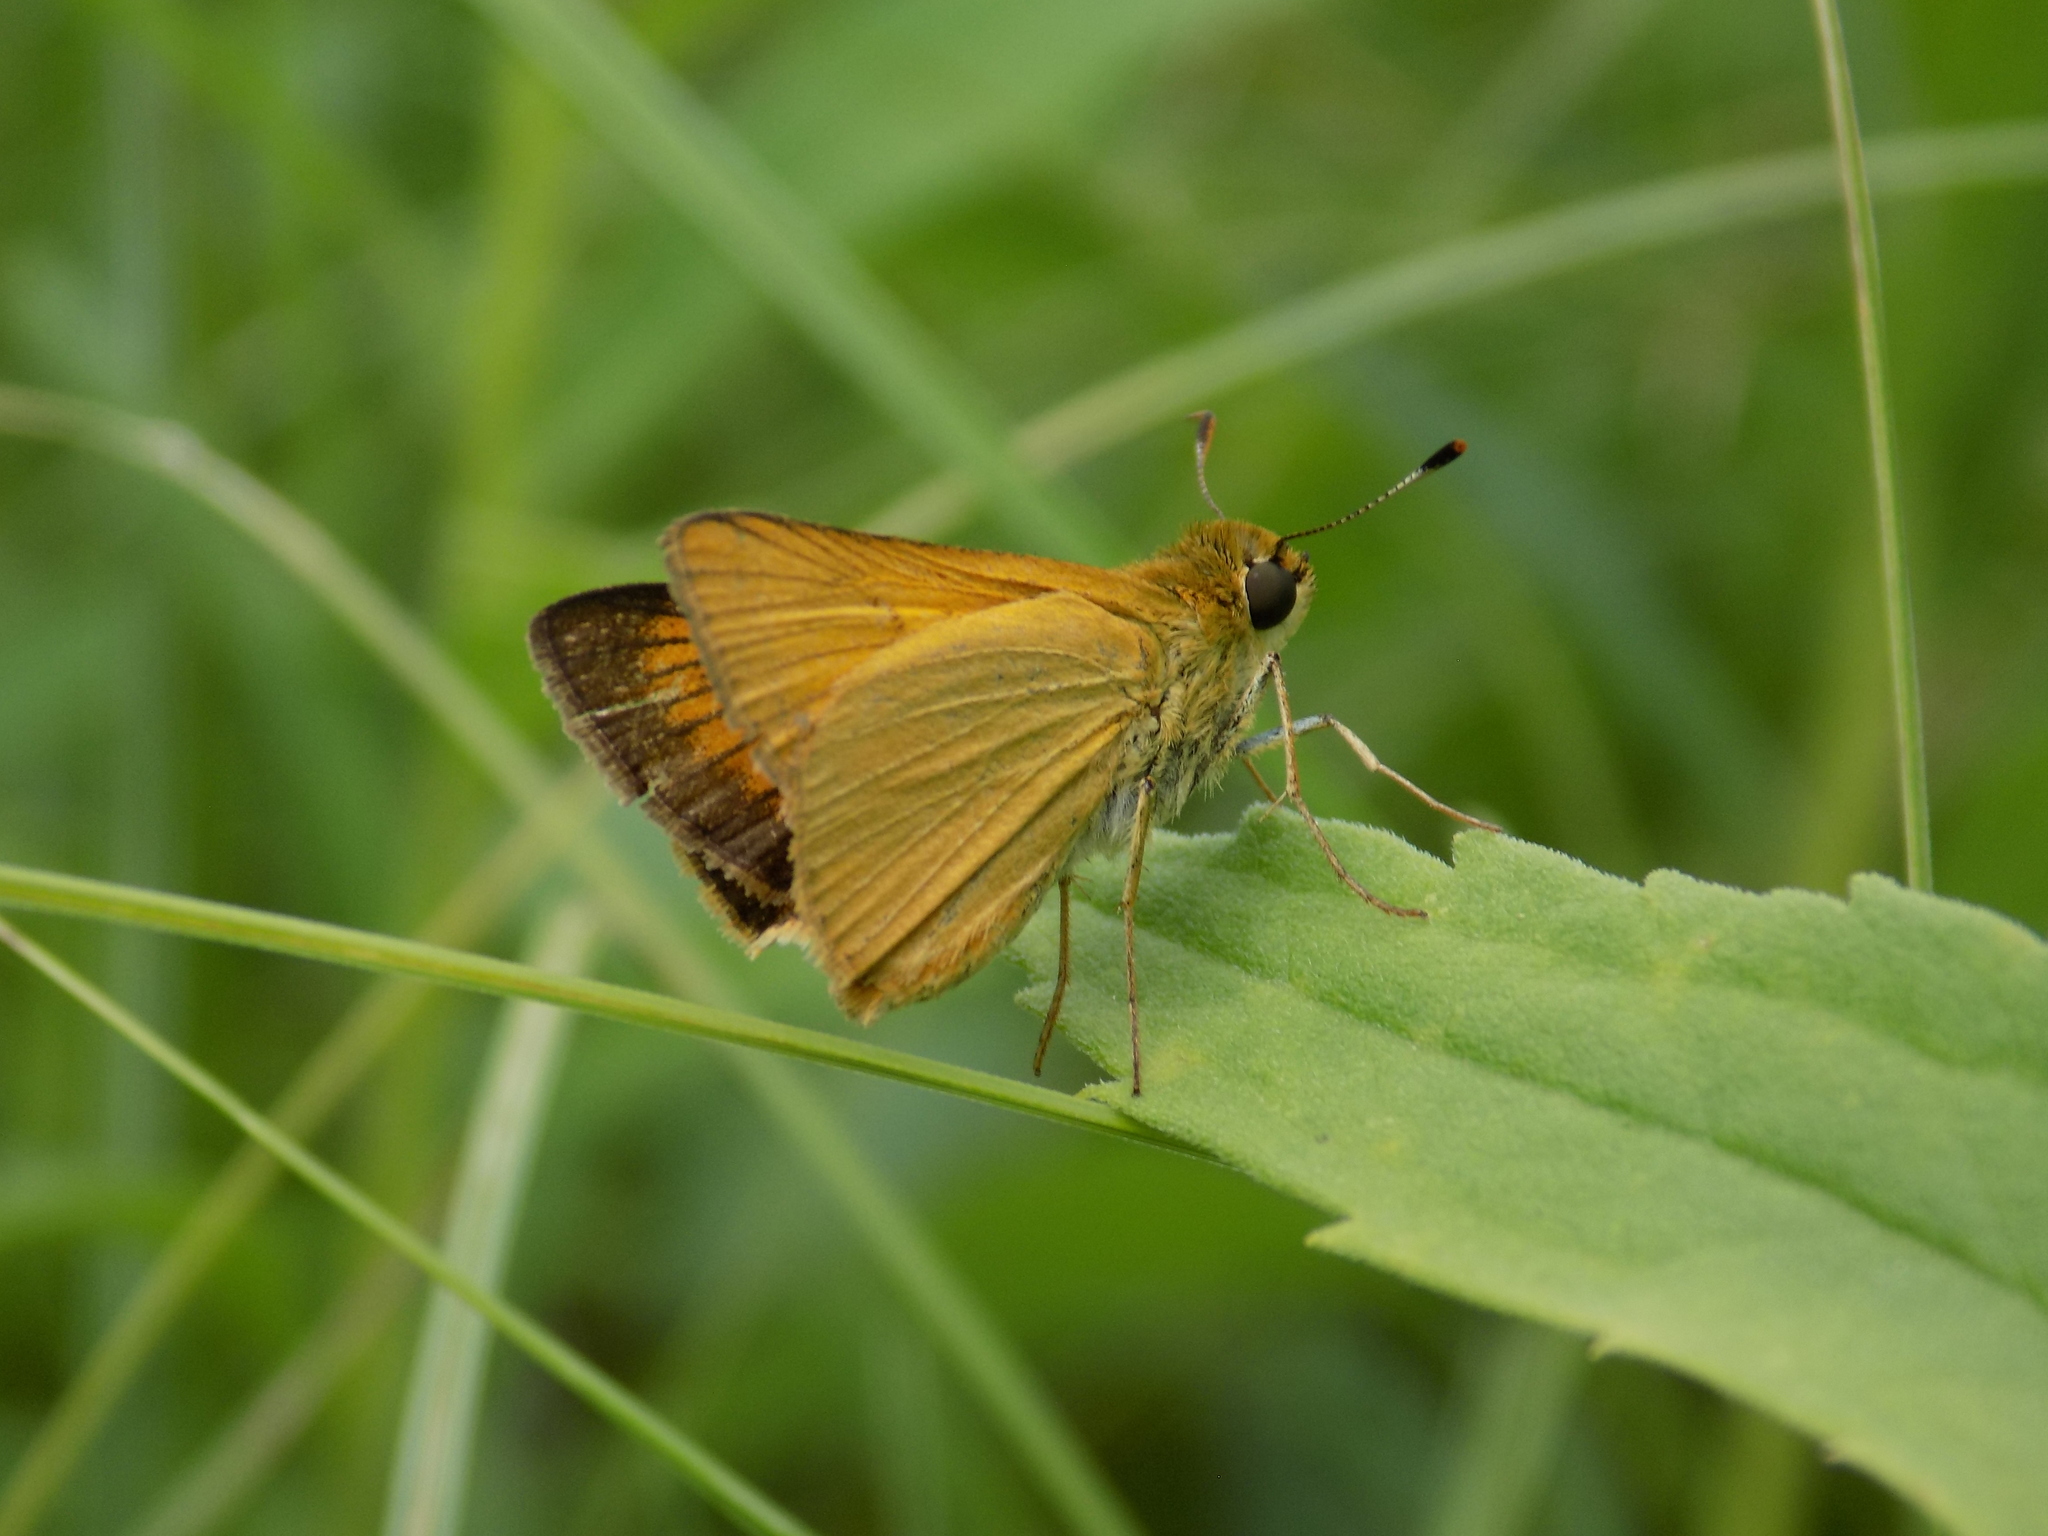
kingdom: Animalia
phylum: Arthropoda
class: Insecta
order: Lepidoptera
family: Hesperiidae
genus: Atrytone
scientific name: Atrytone delaware
